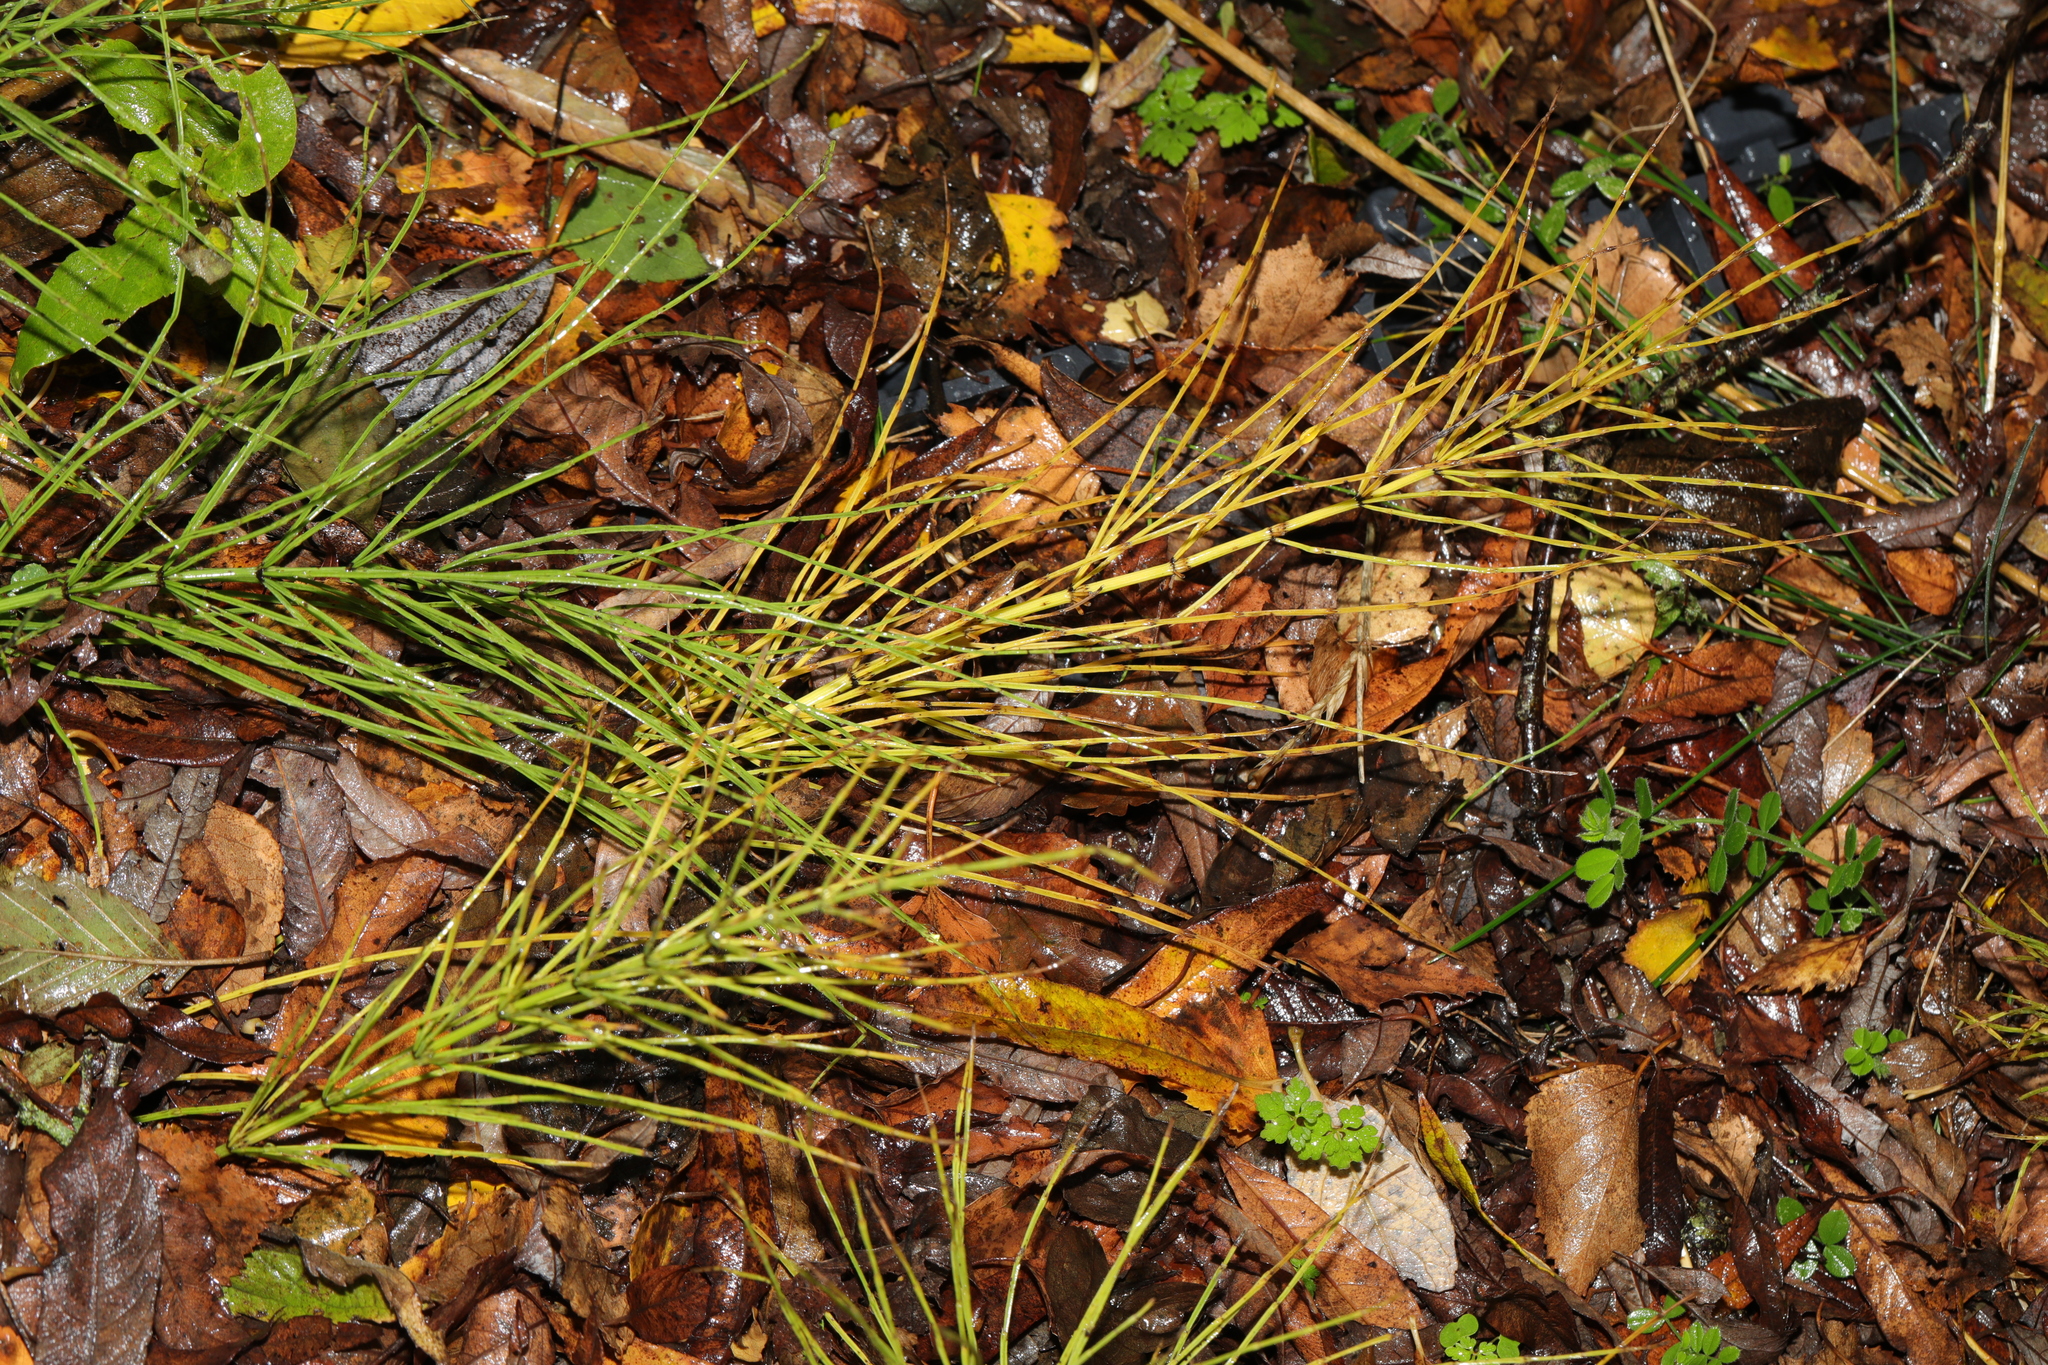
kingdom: Plantae
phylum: Tracheophyta
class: Polypodiopsida
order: Equisetales
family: Equisetaceae
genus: Equisetum
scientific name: Equisetum arvense
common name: Field horsetail
